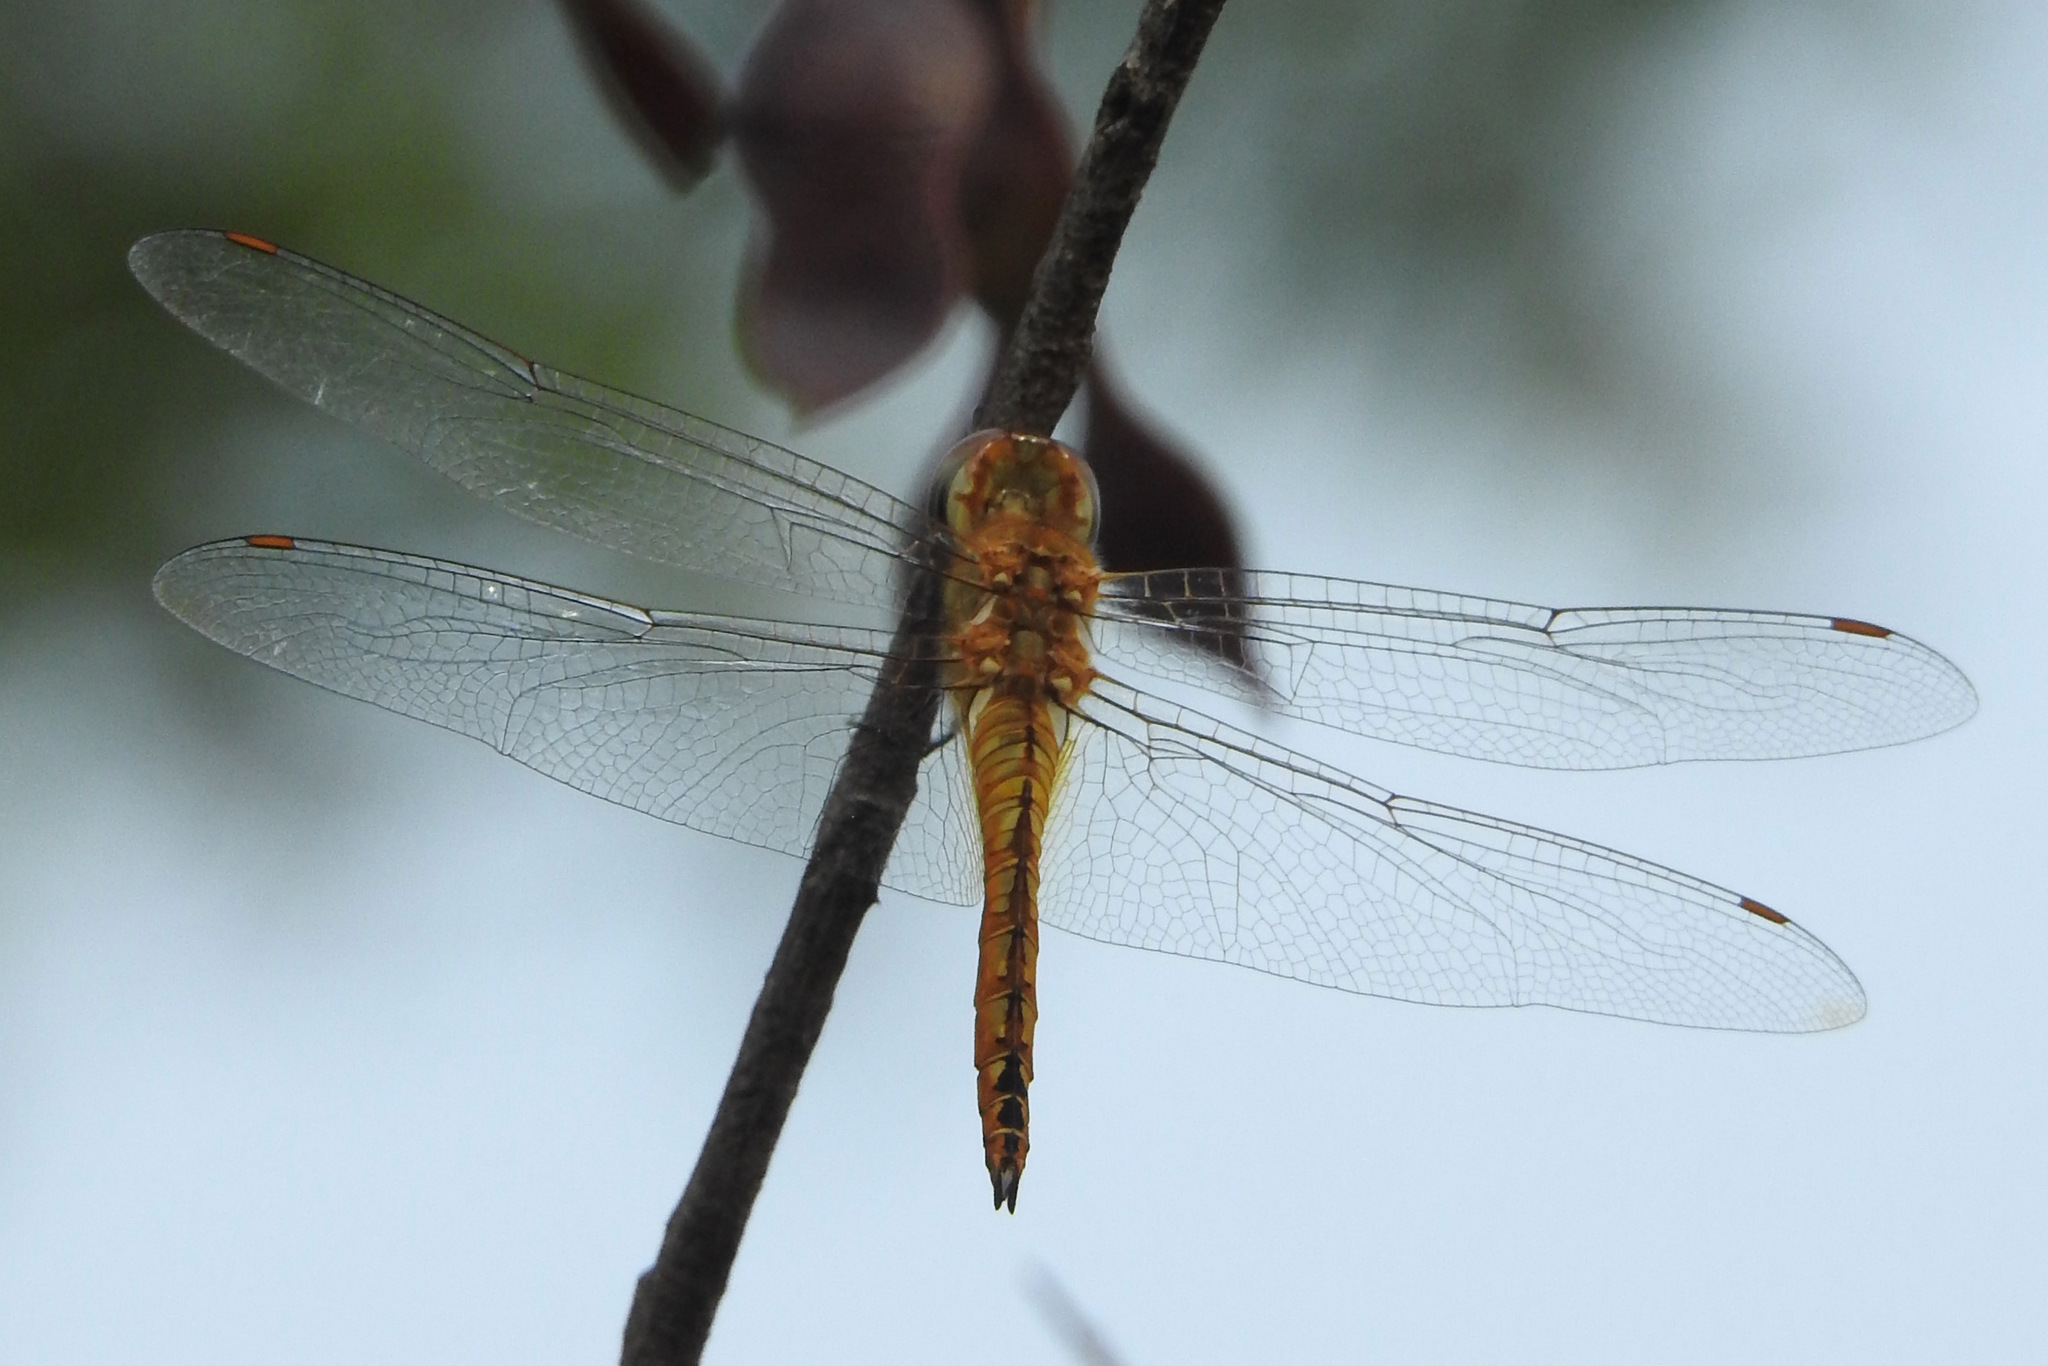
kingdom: Animalia
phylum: Arthropoda
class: Insecta
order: Odonata
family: Libellulidae
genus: Pantala
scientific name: Pantala flavescens
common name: Wandering glider
